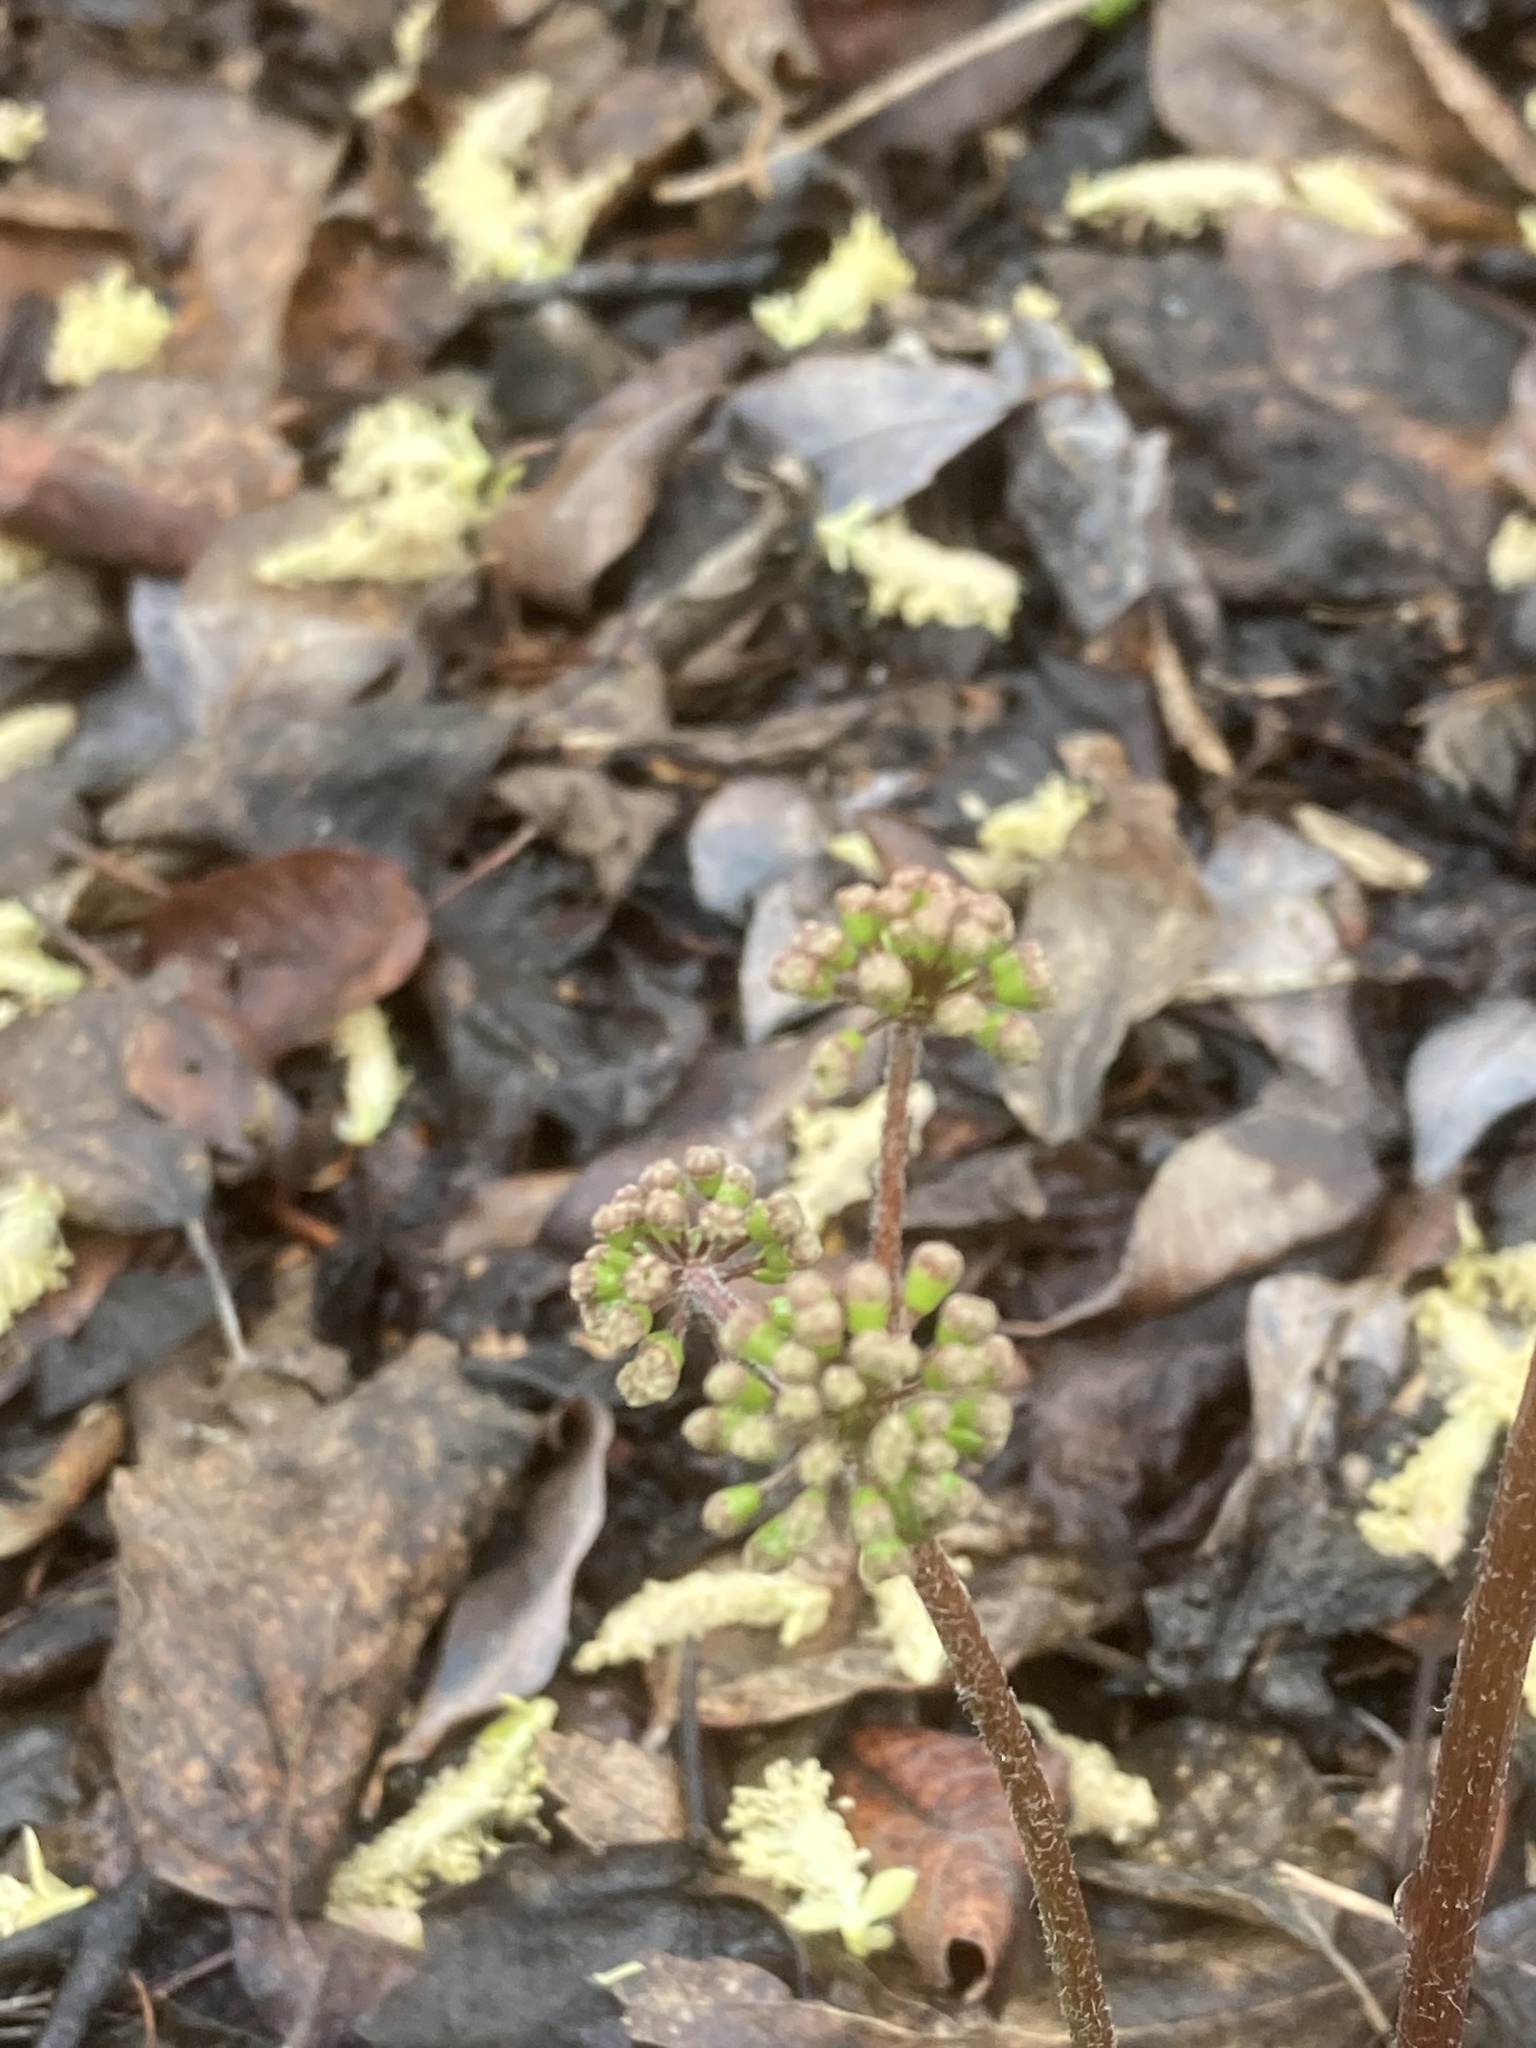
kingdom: Plantae
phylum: Tracheophyta
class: Magnoliopsida
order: Apiales
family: Araliaceae
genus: Aralia
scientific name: Aralia nudicaulis
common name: Wild sarsaparilla
